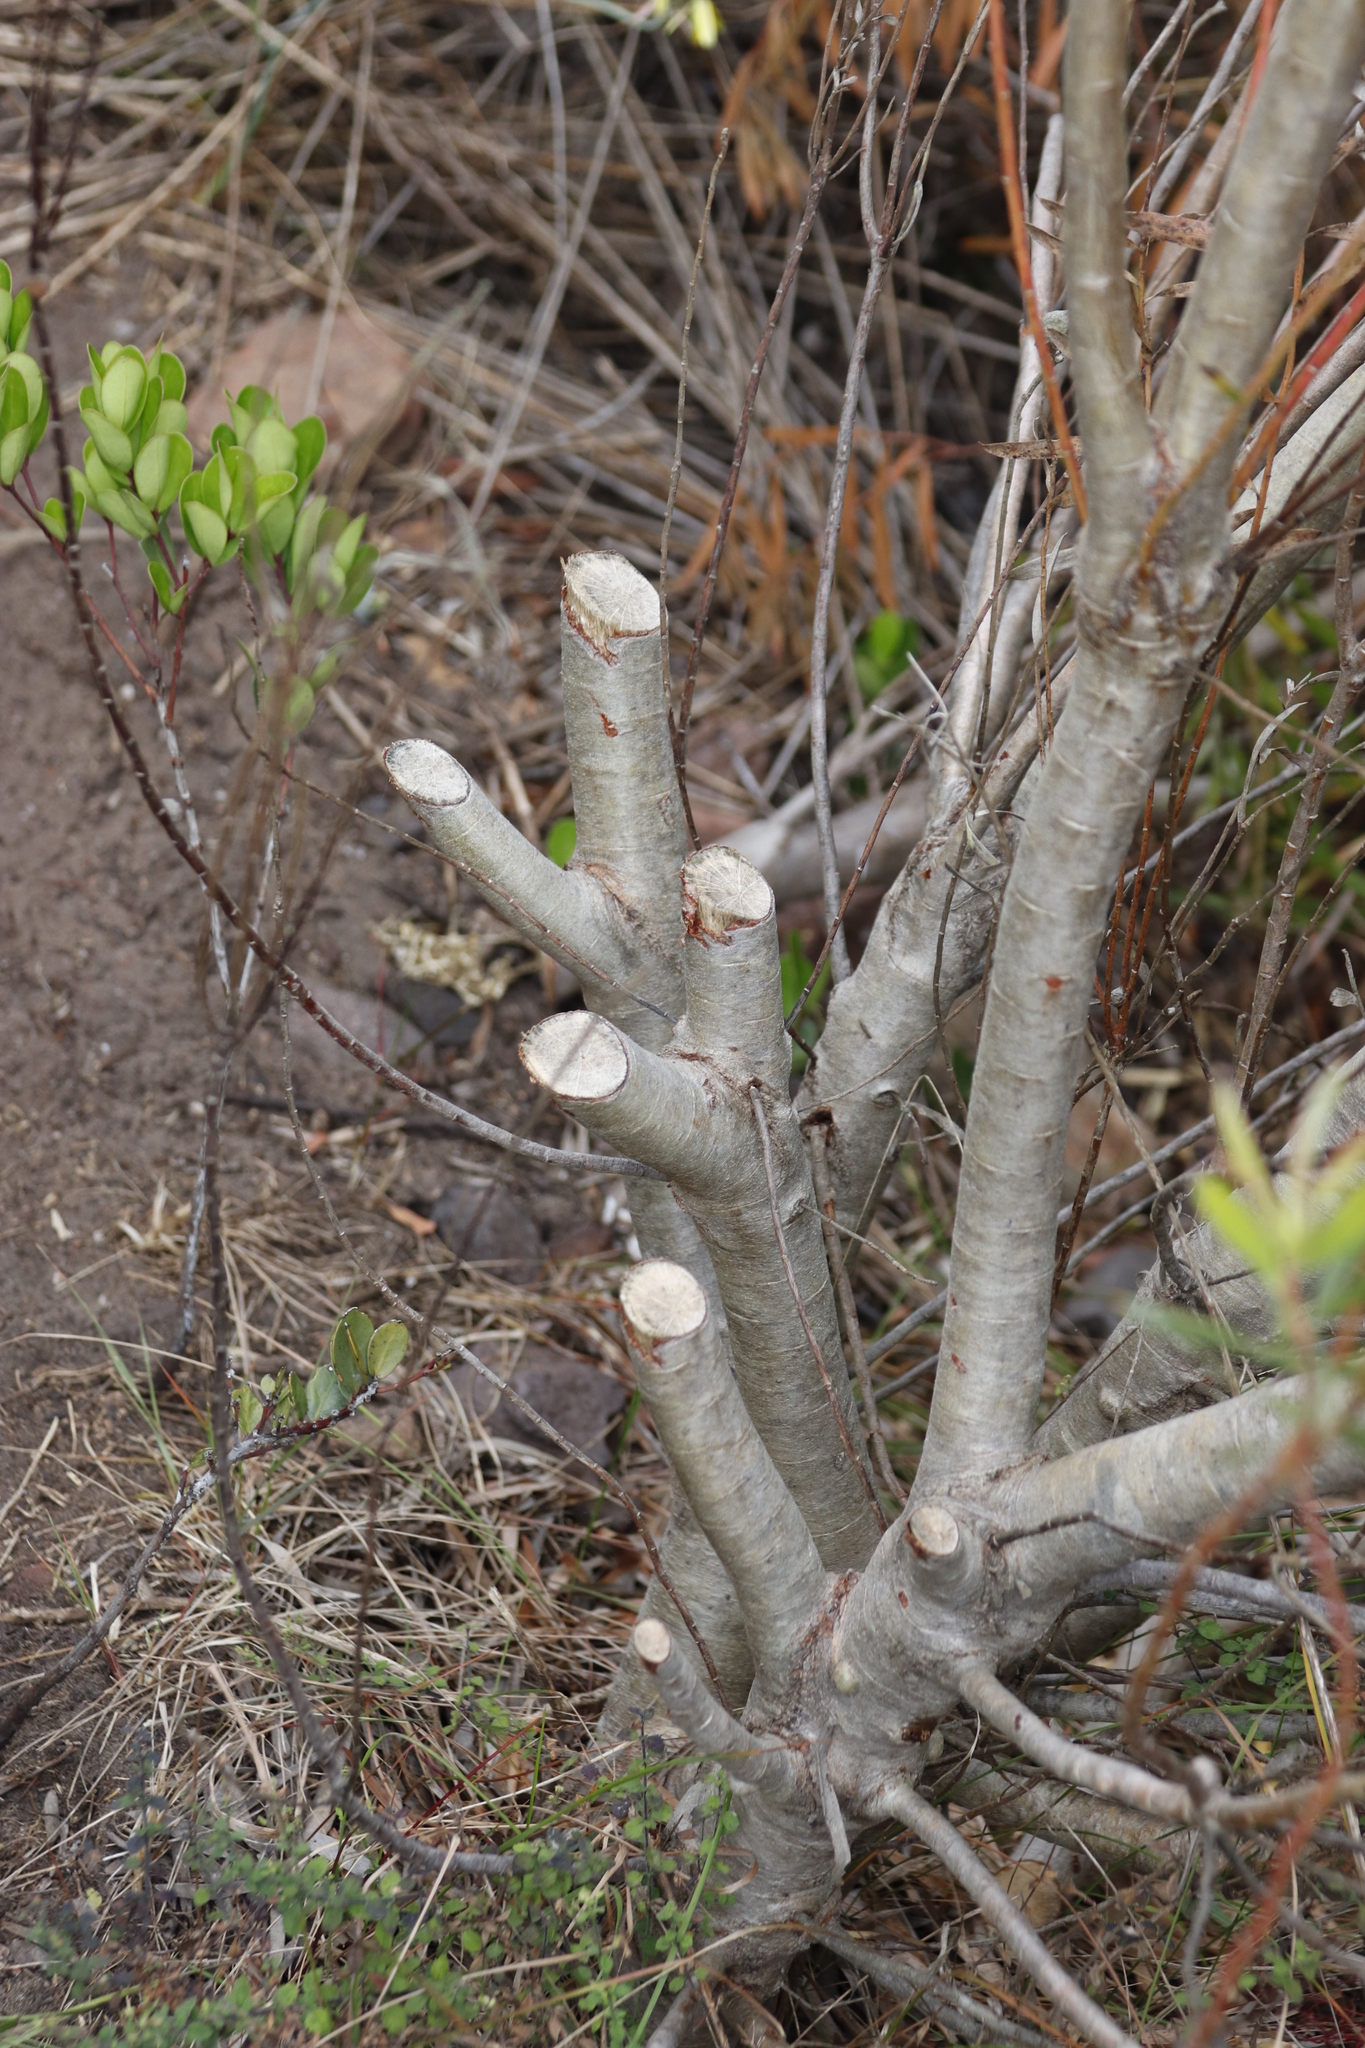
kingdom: Plantae
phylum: Tracheophyta
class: Magnoliopsida
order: Proteales
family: Proteaceae
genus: Leucadendron
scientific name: Leucadendron coniferum
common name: Dune conebush
